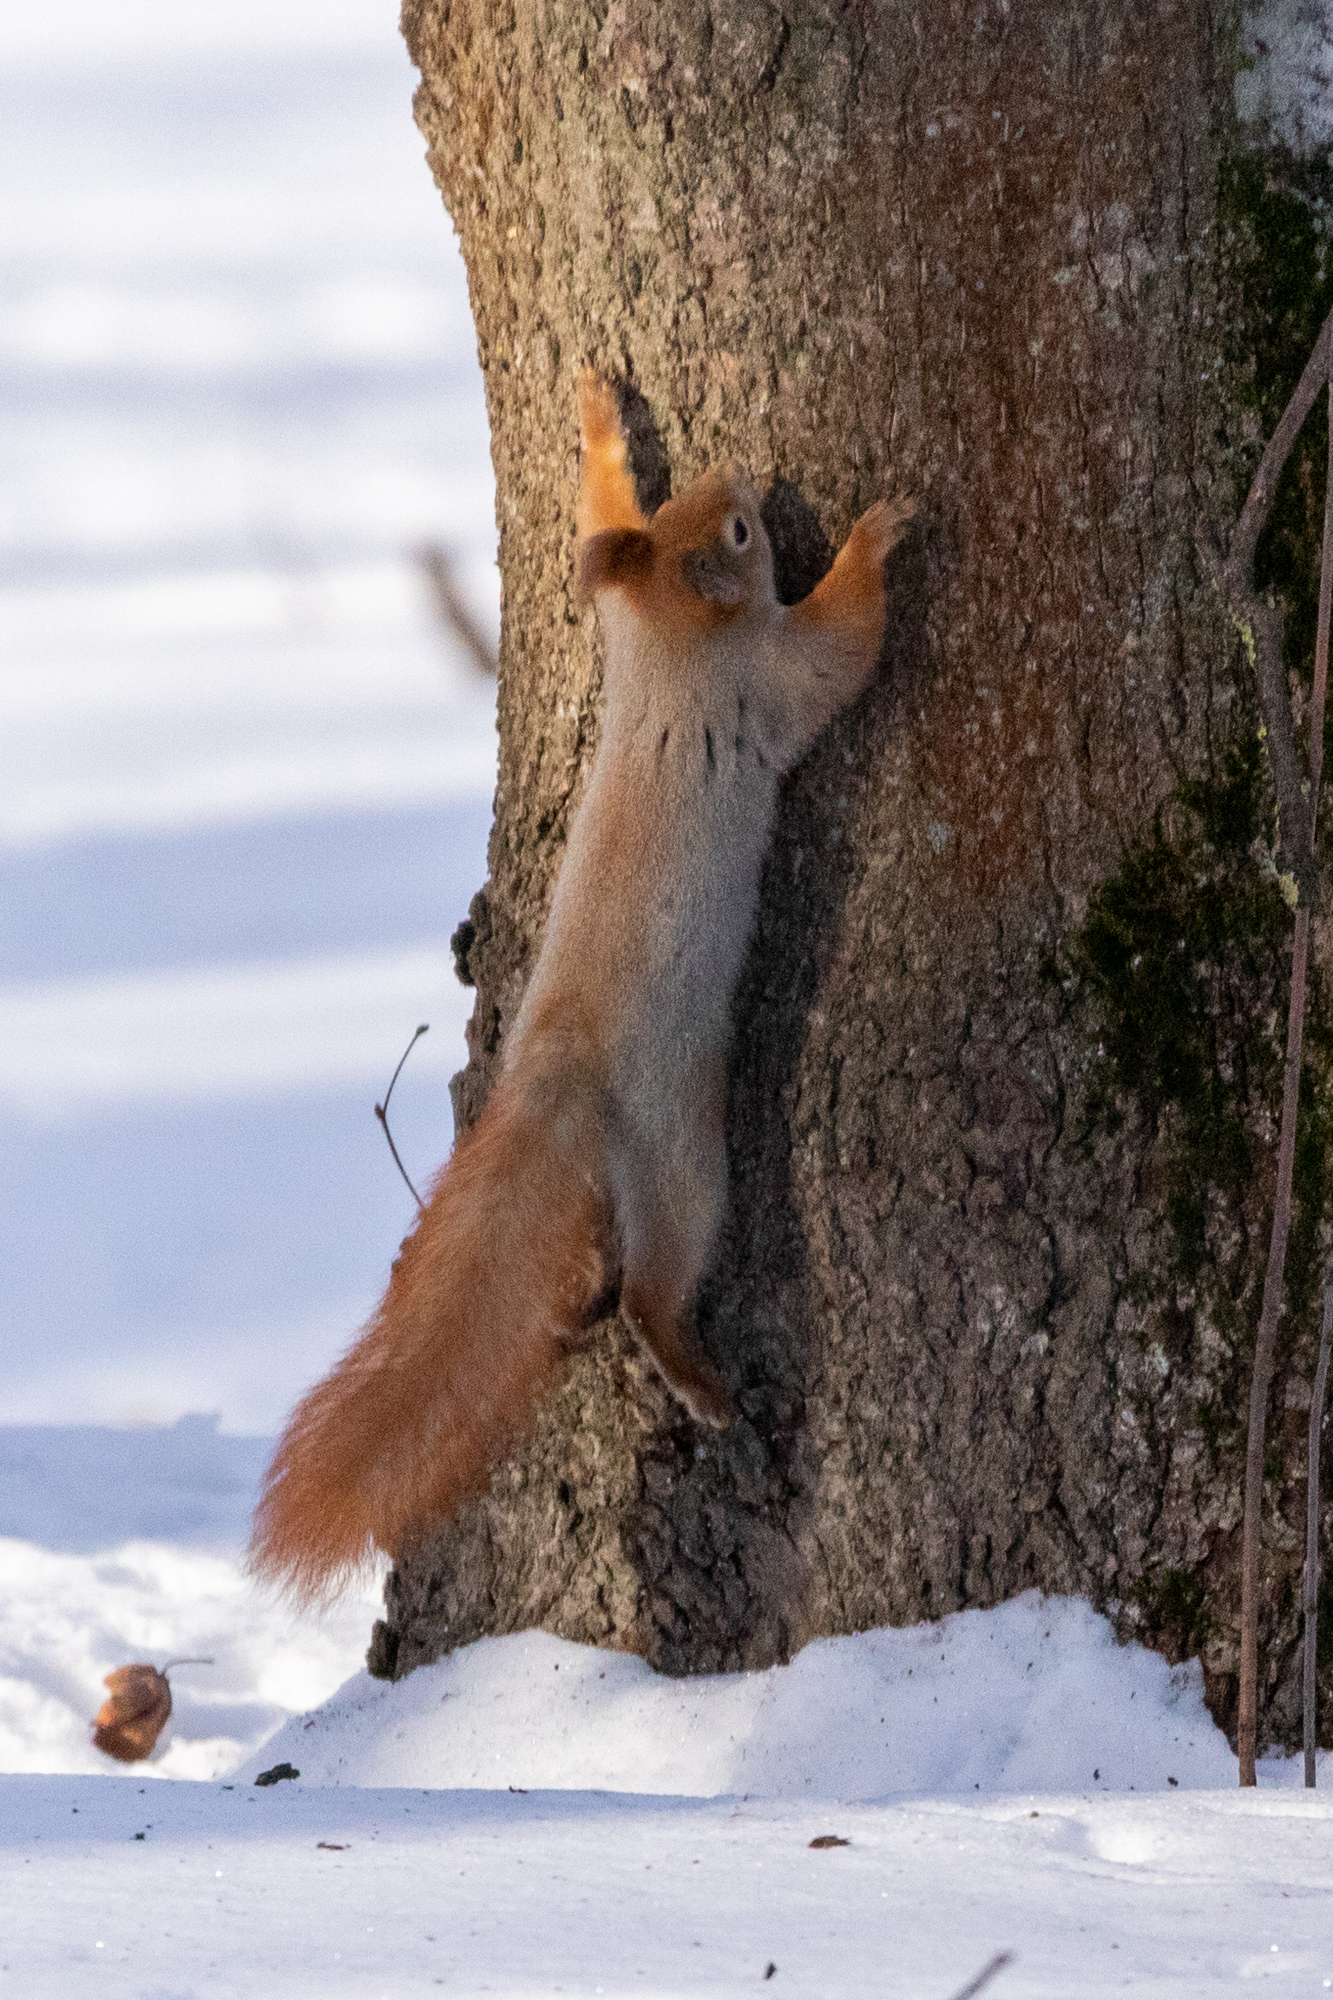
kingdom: Animalia
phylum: Chordata
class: Mammalia
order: Rodentia
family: Sciuridae
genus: Sciurus
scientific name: Sciurus vulgaris
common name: Eurasian red squirrel
